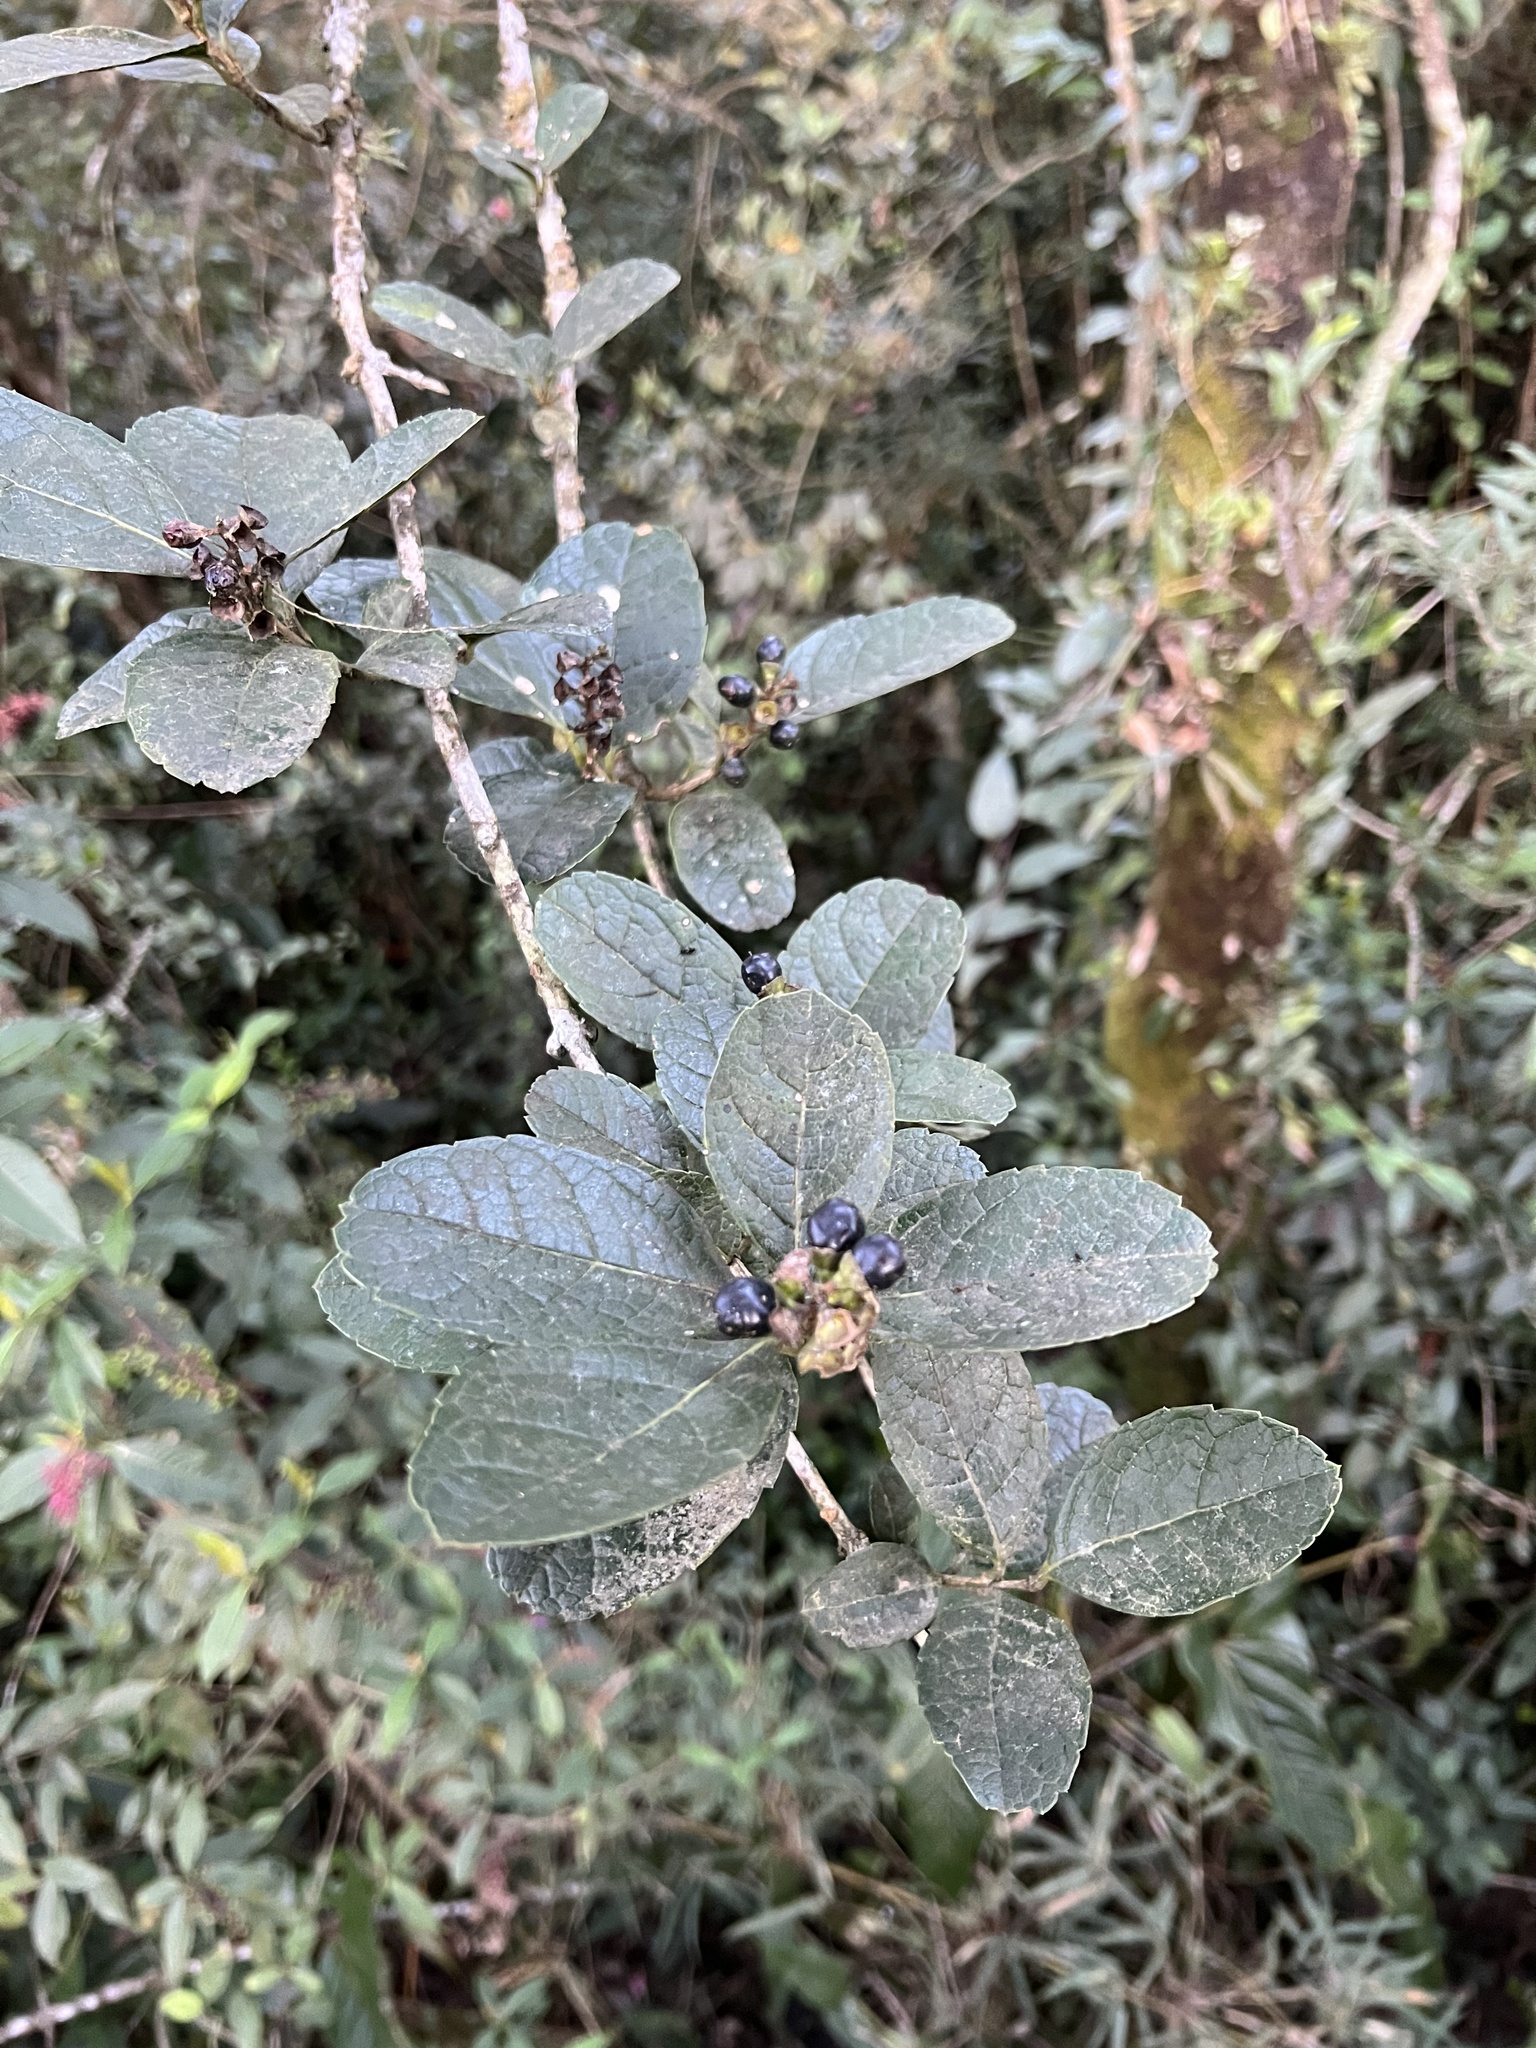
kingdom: Plantae
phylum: Tracheophyta
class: Magnoliopsida
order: Lamiales
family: Verbenaceae
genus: Citharexylum
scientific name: Citharexylum reticulatum
